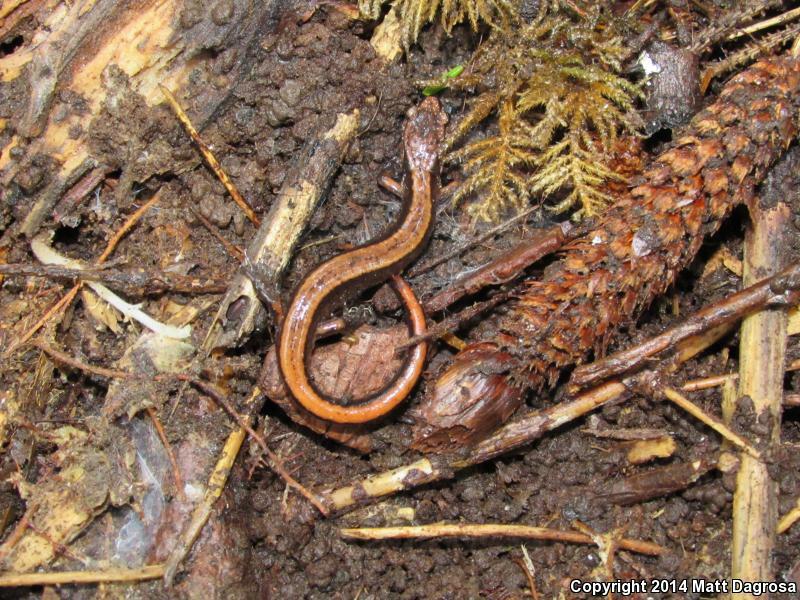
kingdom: Animalia
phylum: Chordata
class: Amphibia
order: Caudata
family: Plethodontidae
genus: Plethodon
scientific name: Plethodon vehiculum
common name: Western red-backed salamander
